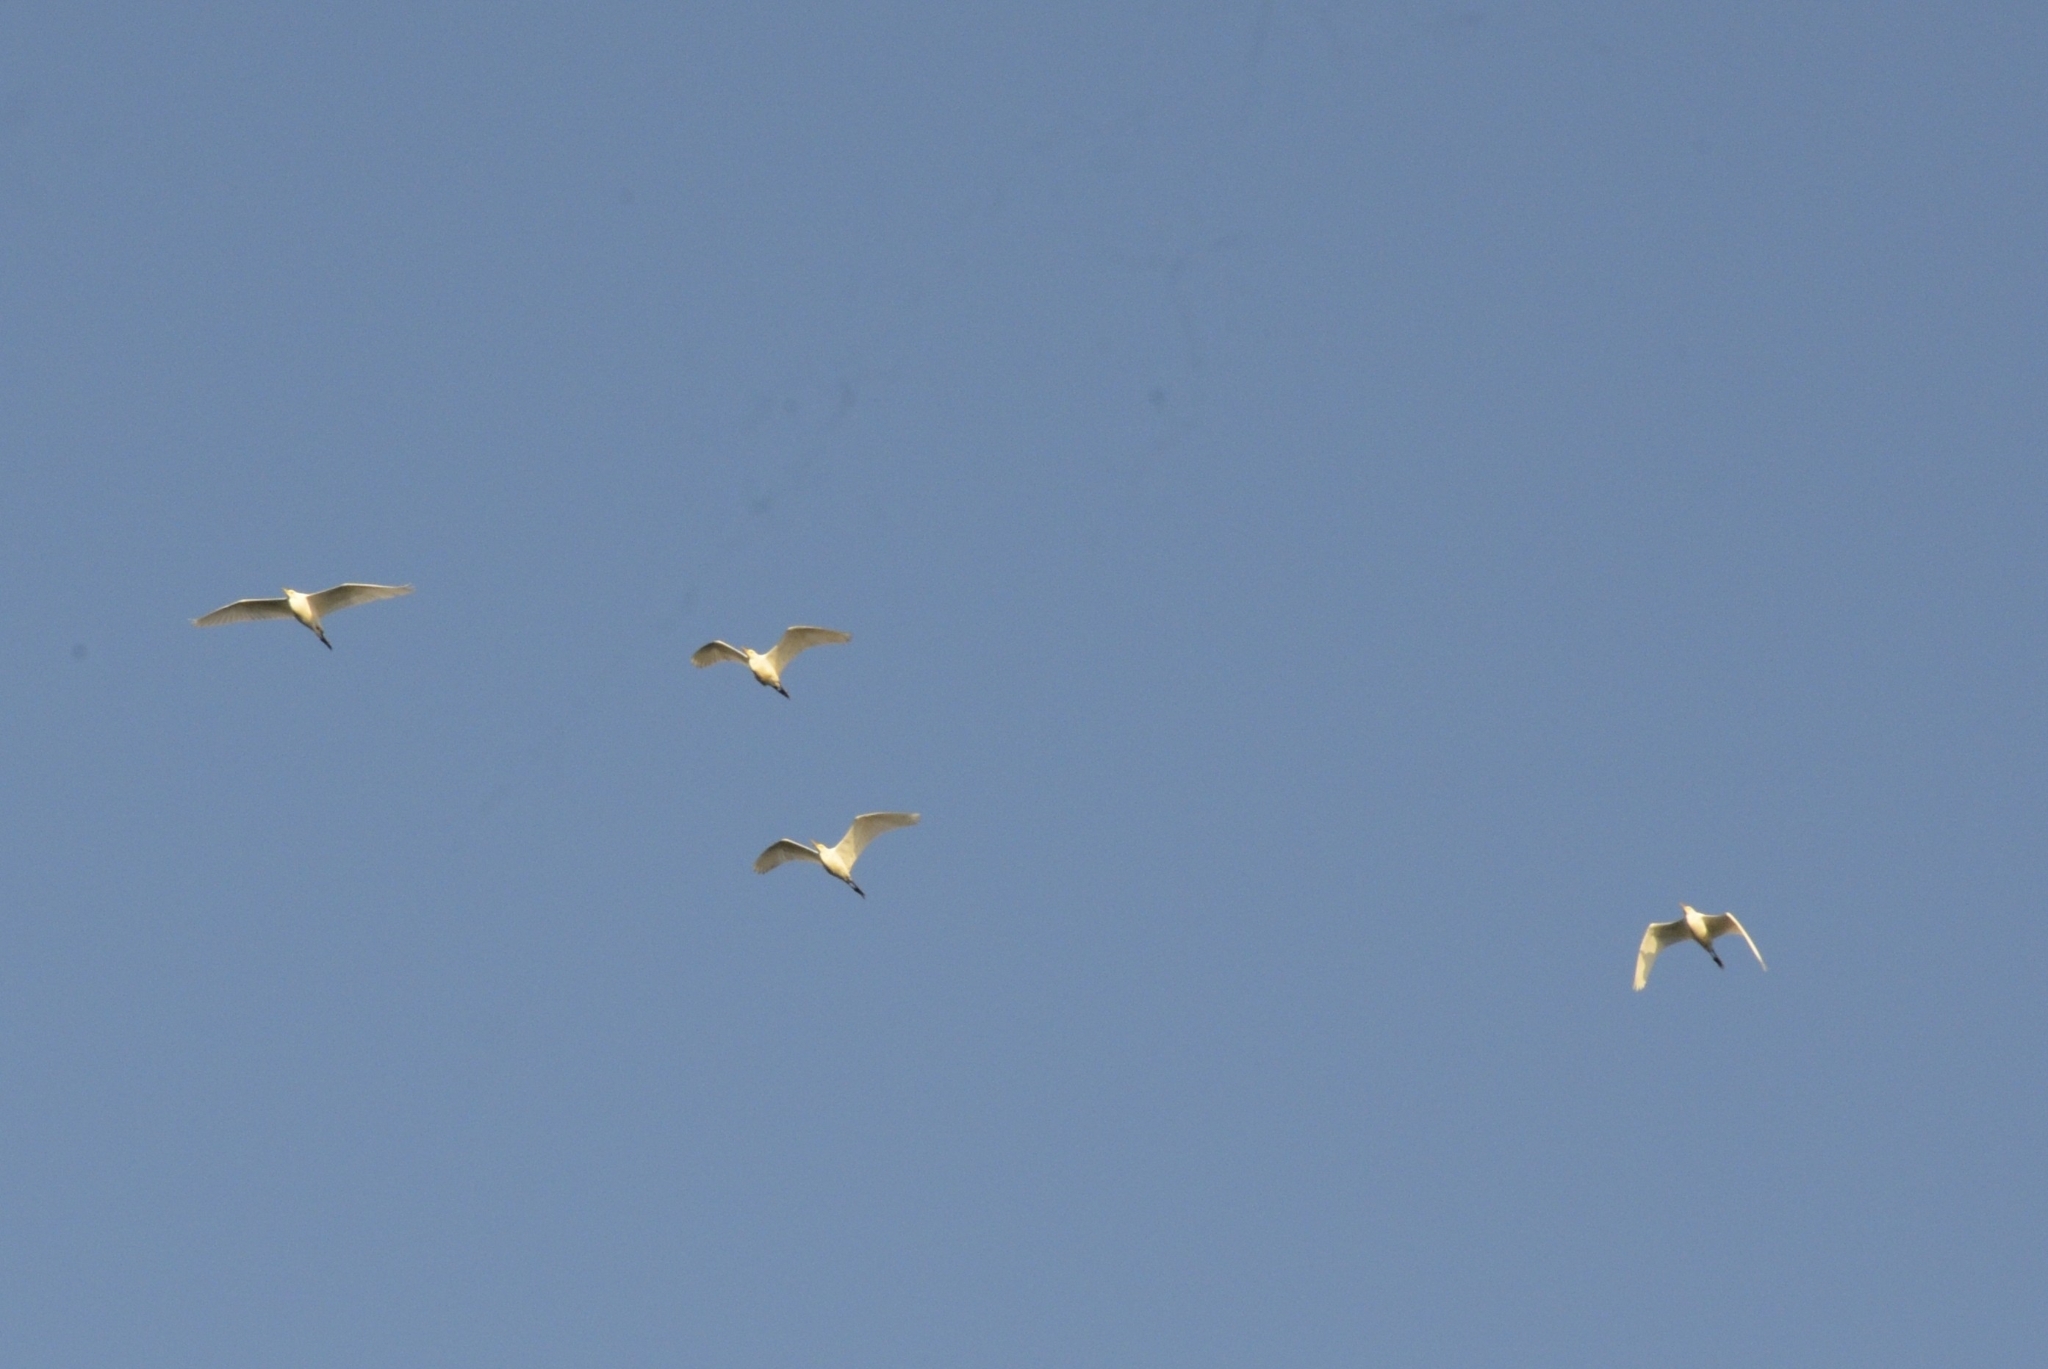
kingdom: Animalia
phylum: Chordata
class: Aves
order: Pelecaniformes
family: Ardeidae
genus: Bubulcus
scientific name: Bubulcus coromandus
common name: Eastern cattle egret
